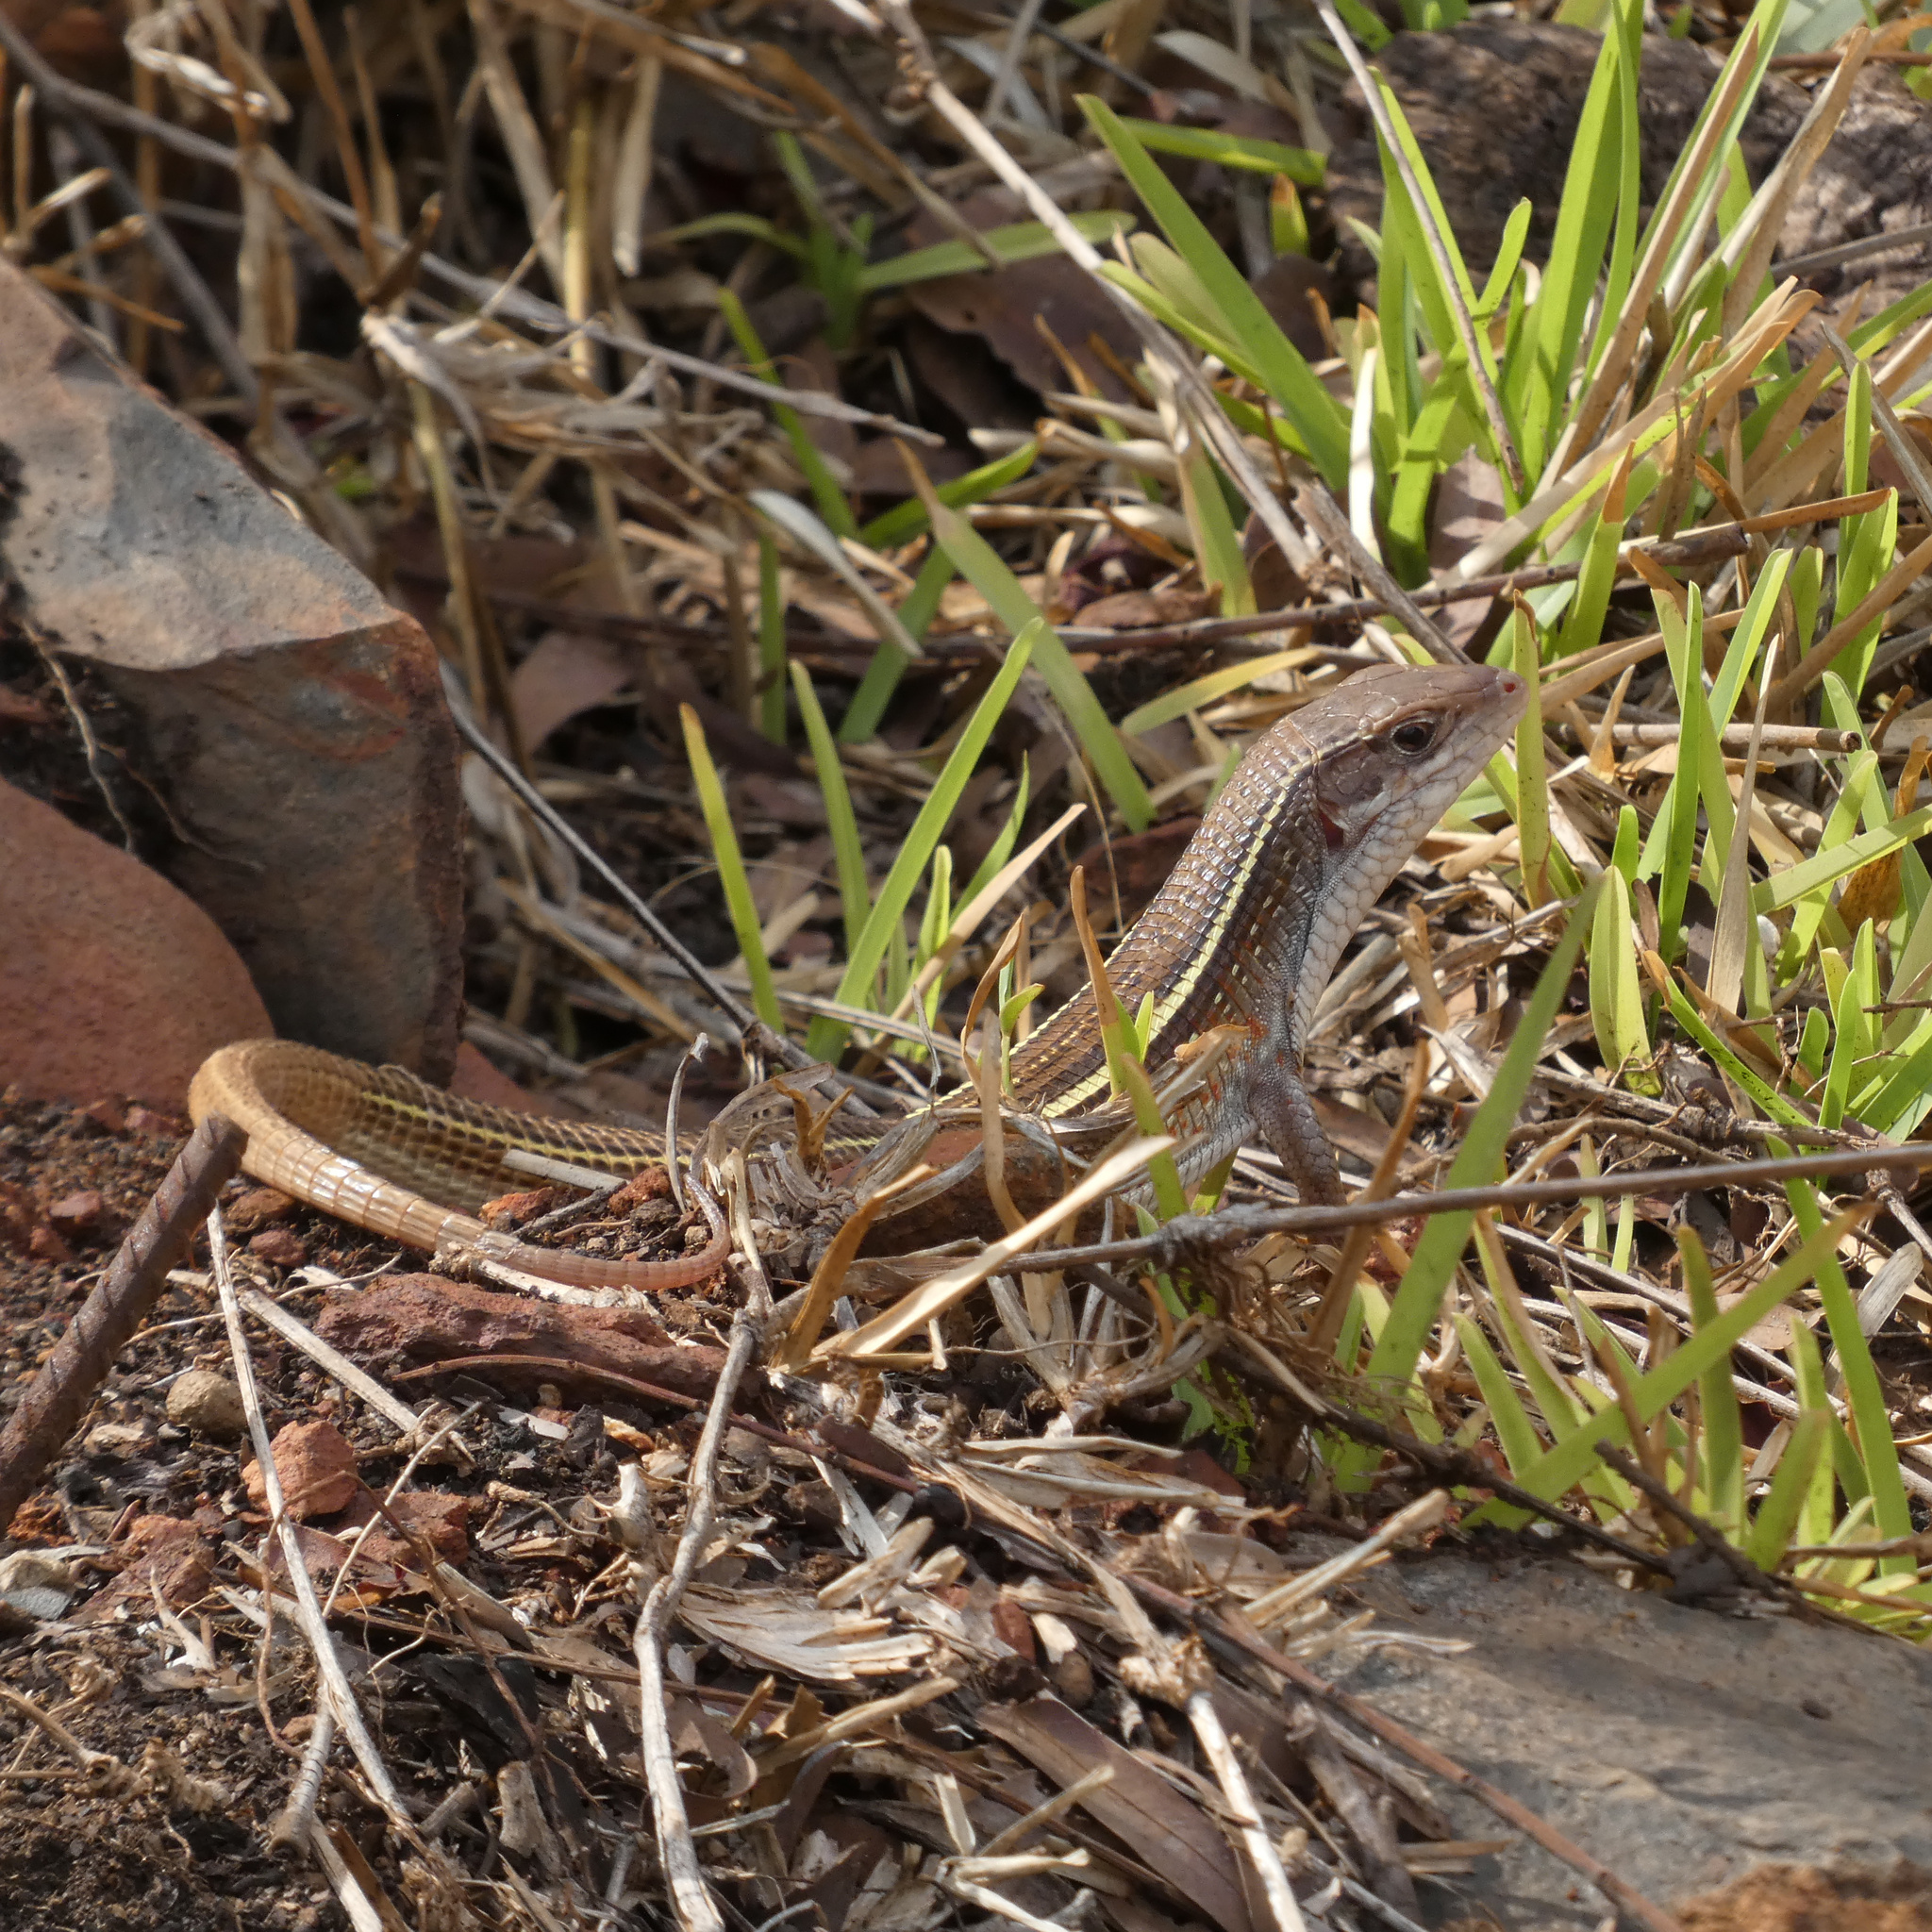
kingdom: Animalia
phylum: Chordata
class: Squamata
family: Gerrhosauridae
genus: Gerrhosaurus
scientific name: Gerrhosaurus nigrolineatus
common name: Black-lined plated lizard
